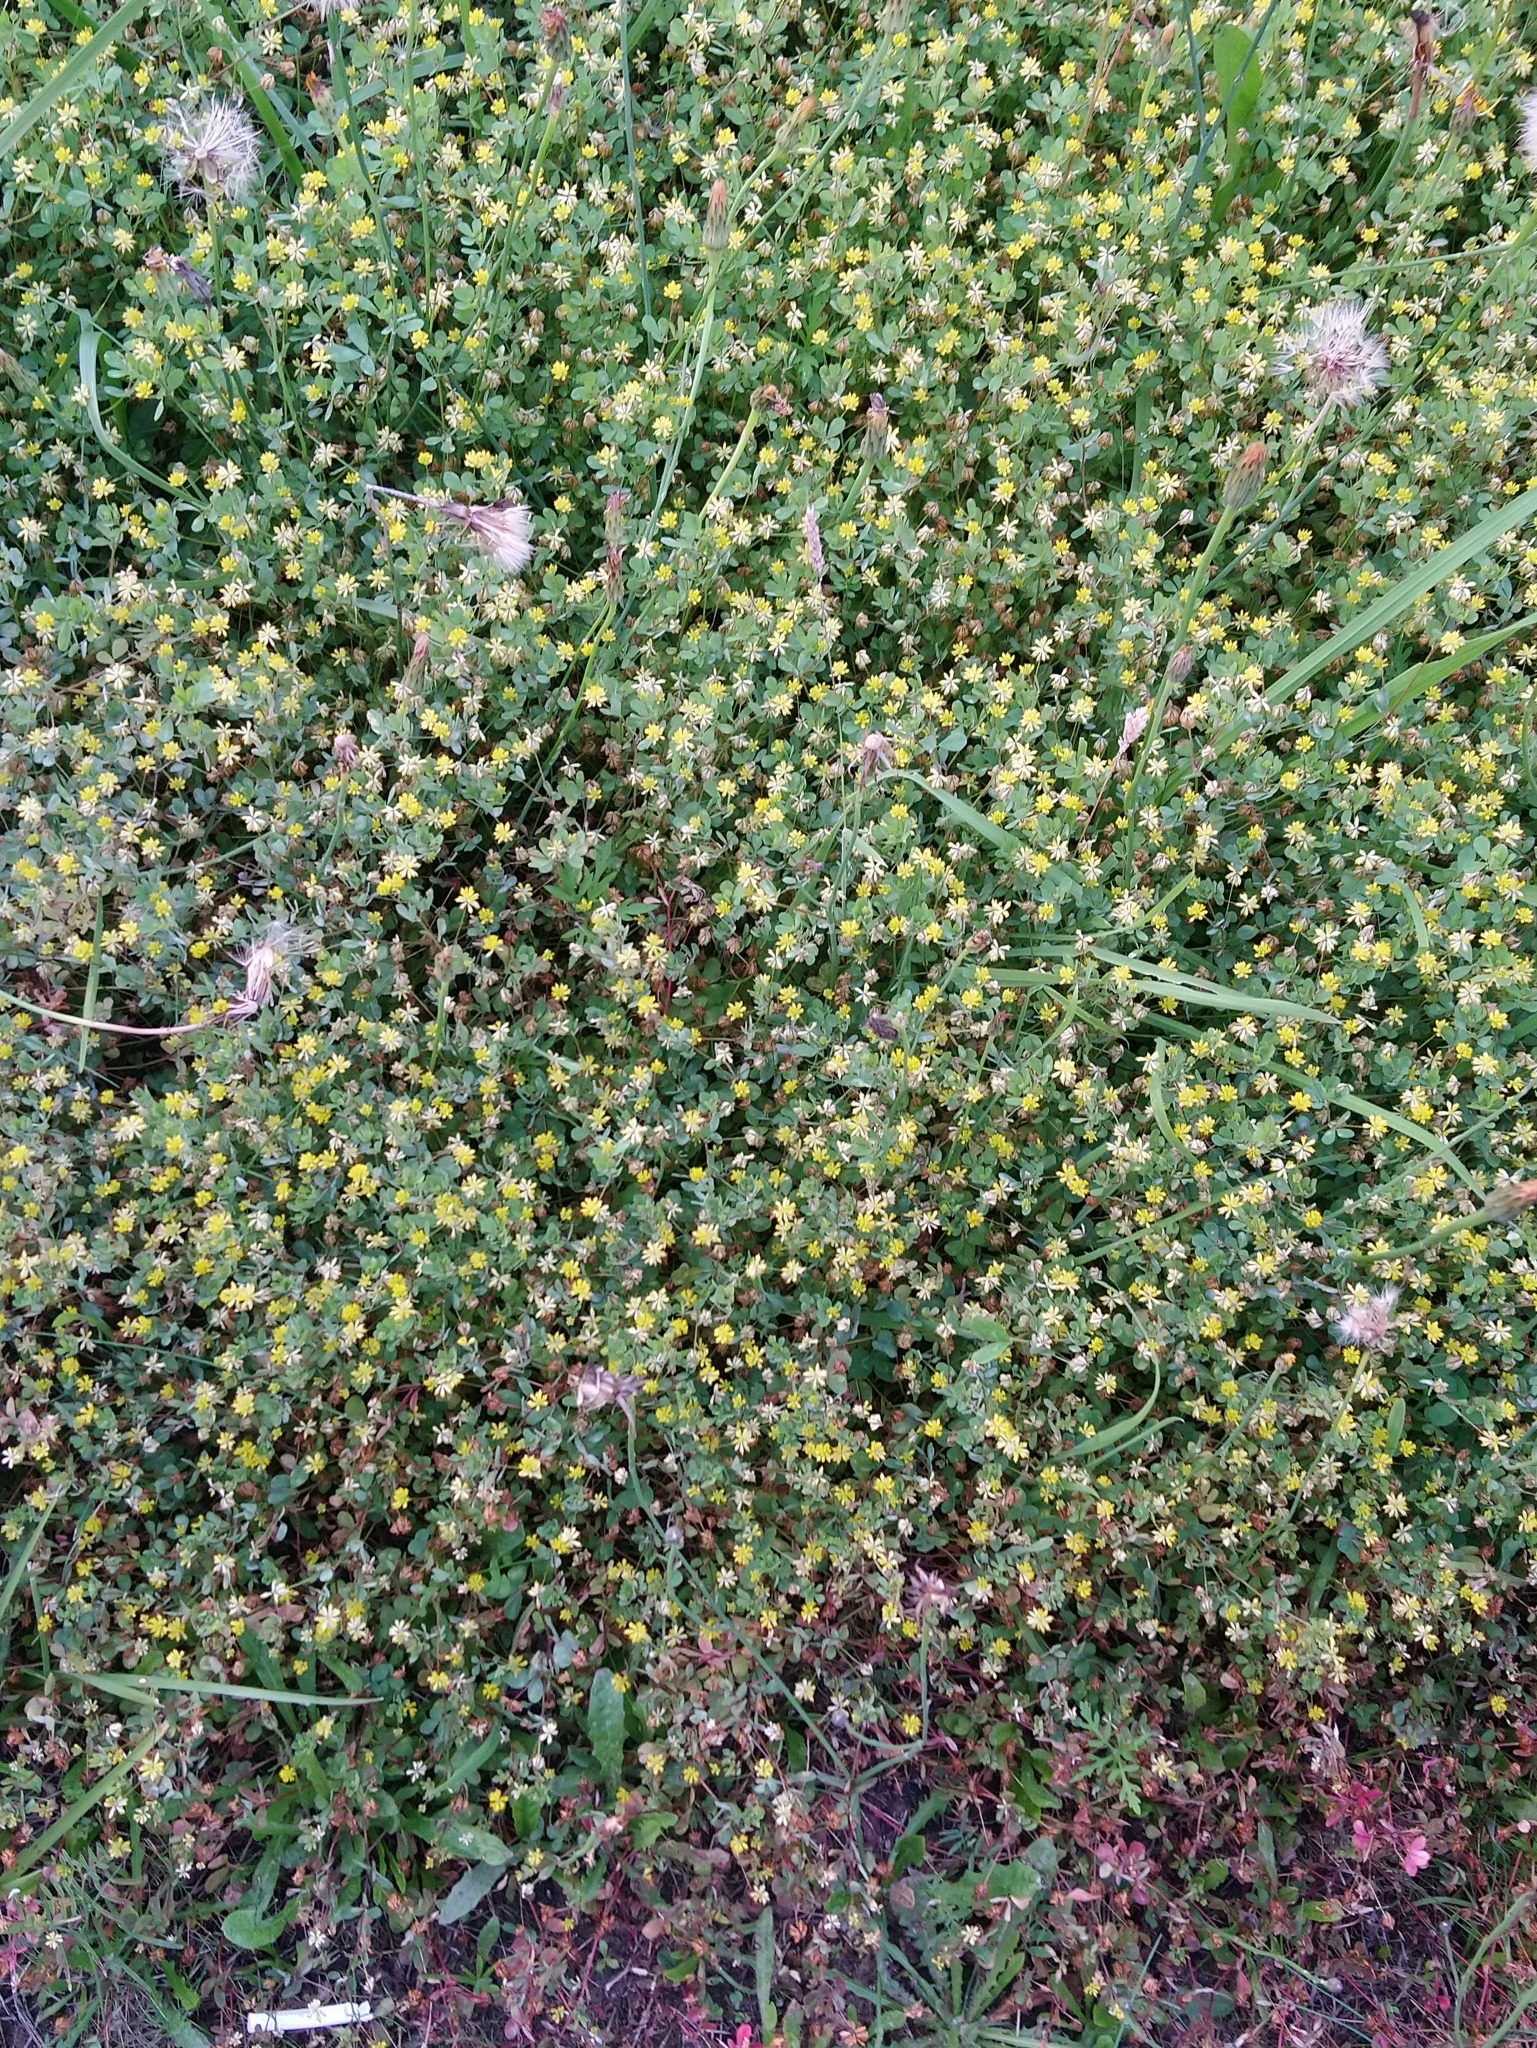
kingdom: Plantae
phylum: Tracheophyta
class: Magnoliopsida
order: Fabales
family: Fabaceae
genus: Trifolium
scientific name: Trifolium dubium
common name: Suckling clover
